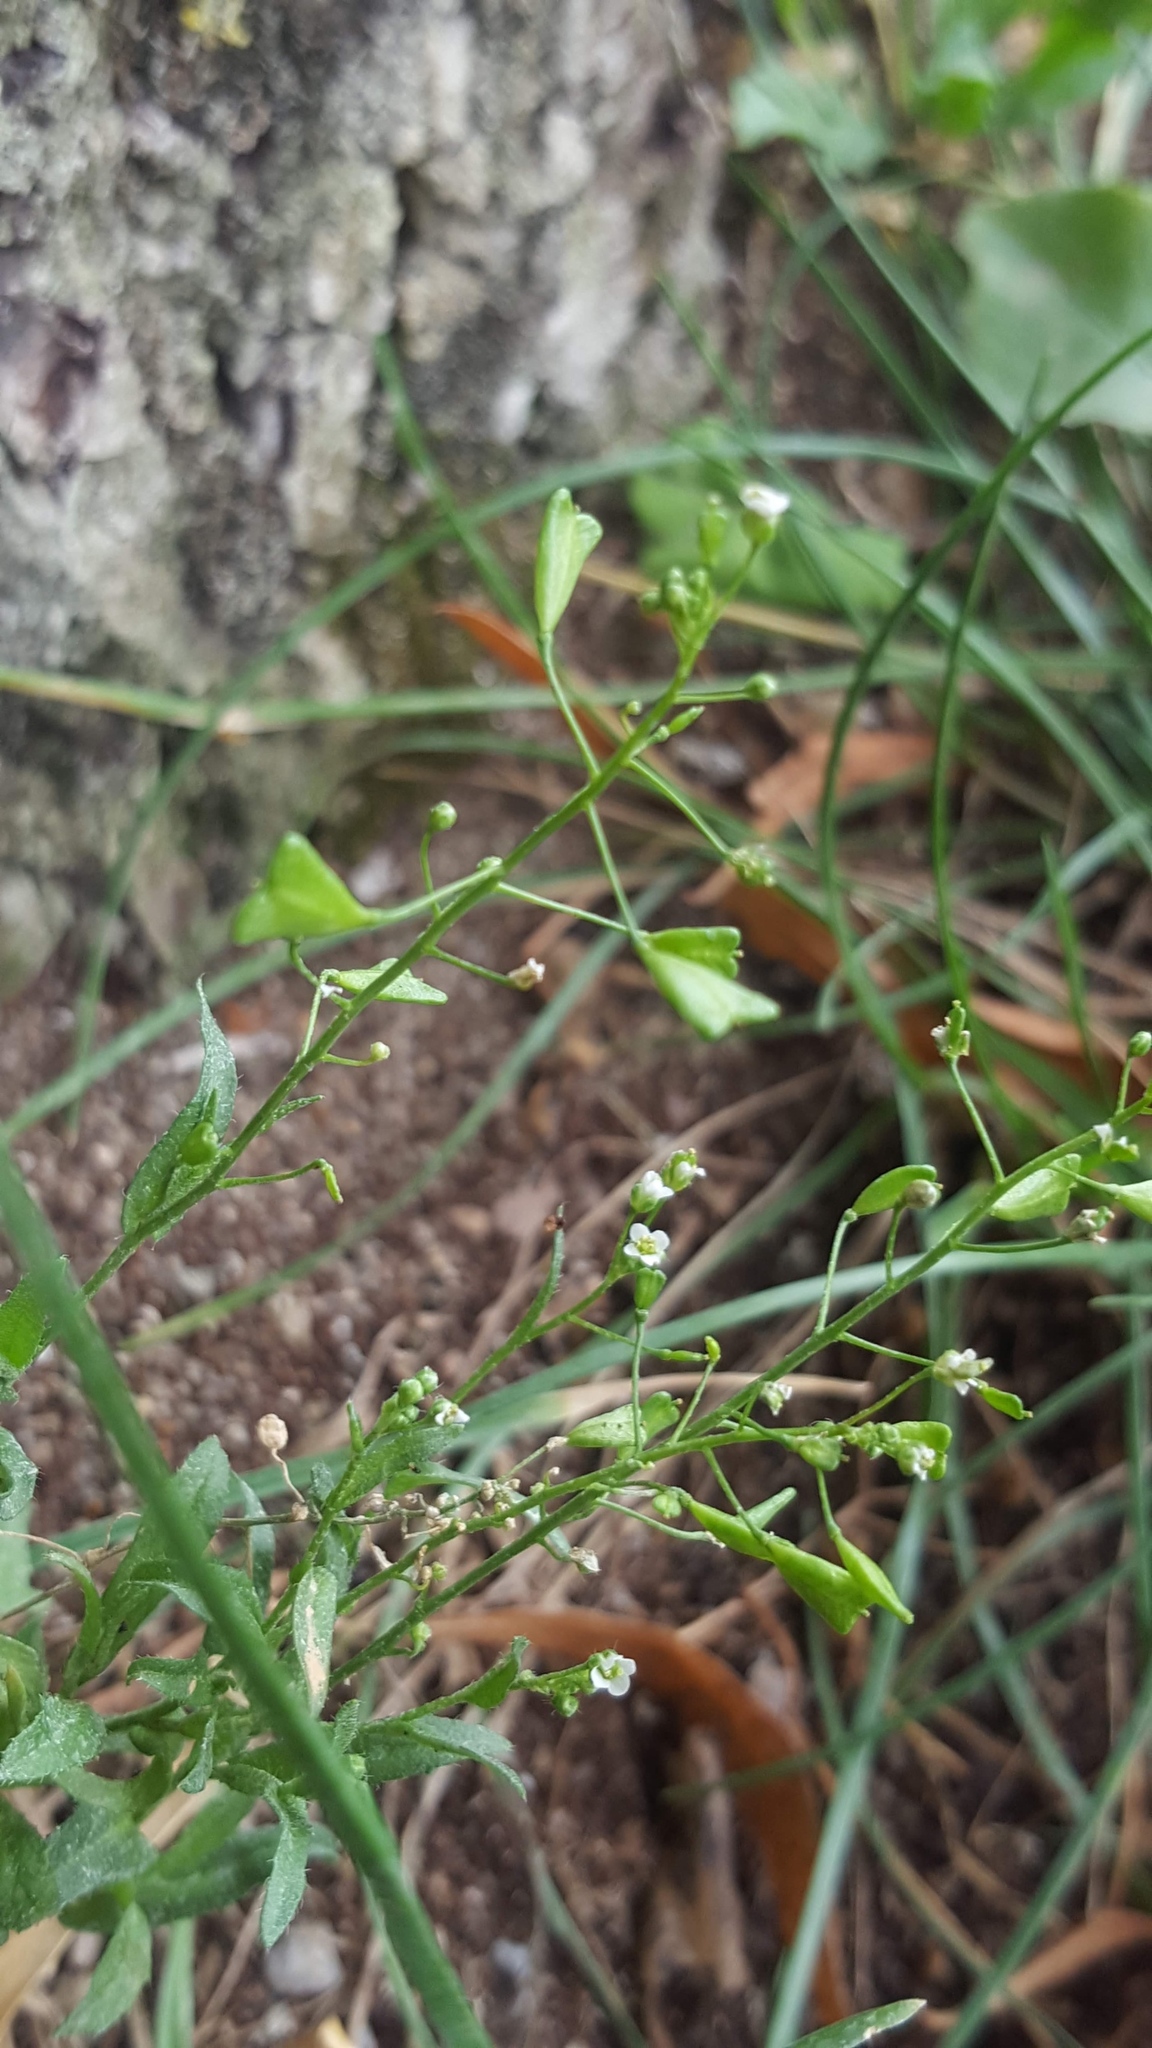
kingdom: Plantae
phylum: Tracheophyta
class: Magnoliopsida
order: Brassicales
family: Brassicaceae
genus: Capsella
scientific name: Capsella bursa-pastoris
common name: Shepherd's purse
